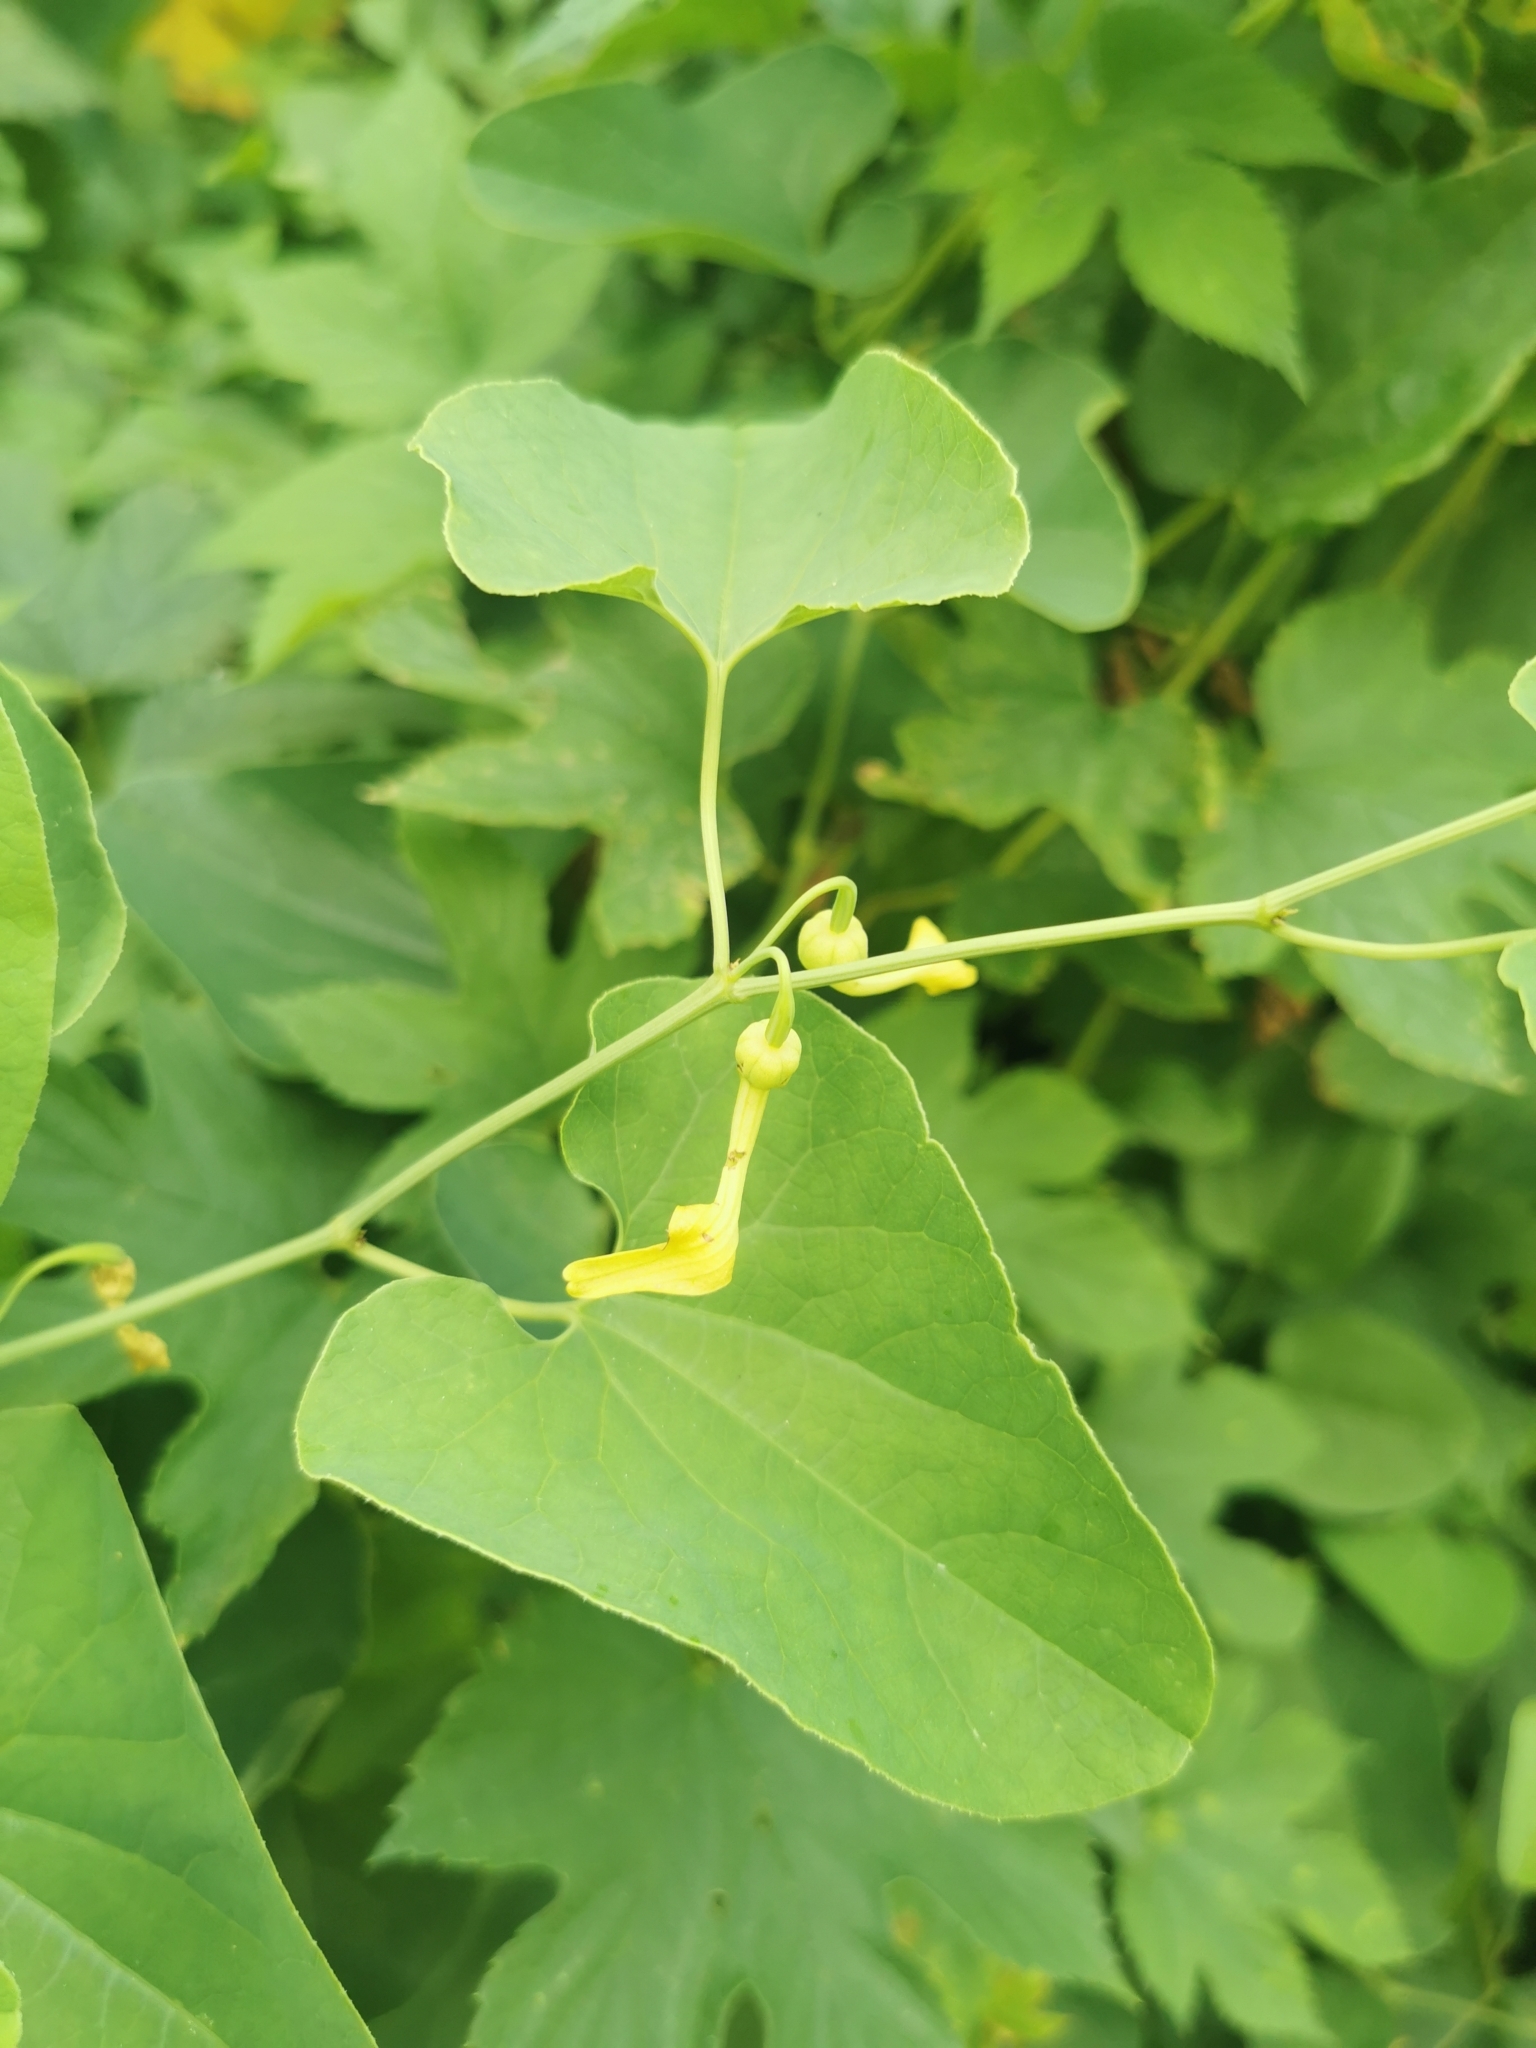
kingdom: Plantae
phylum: Tracheophyta
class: Magnoliopsida
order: Piperales
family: Aristolochiaceae
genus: Aristolochia
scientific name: Aristolochia clematitis
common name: Birthwort
